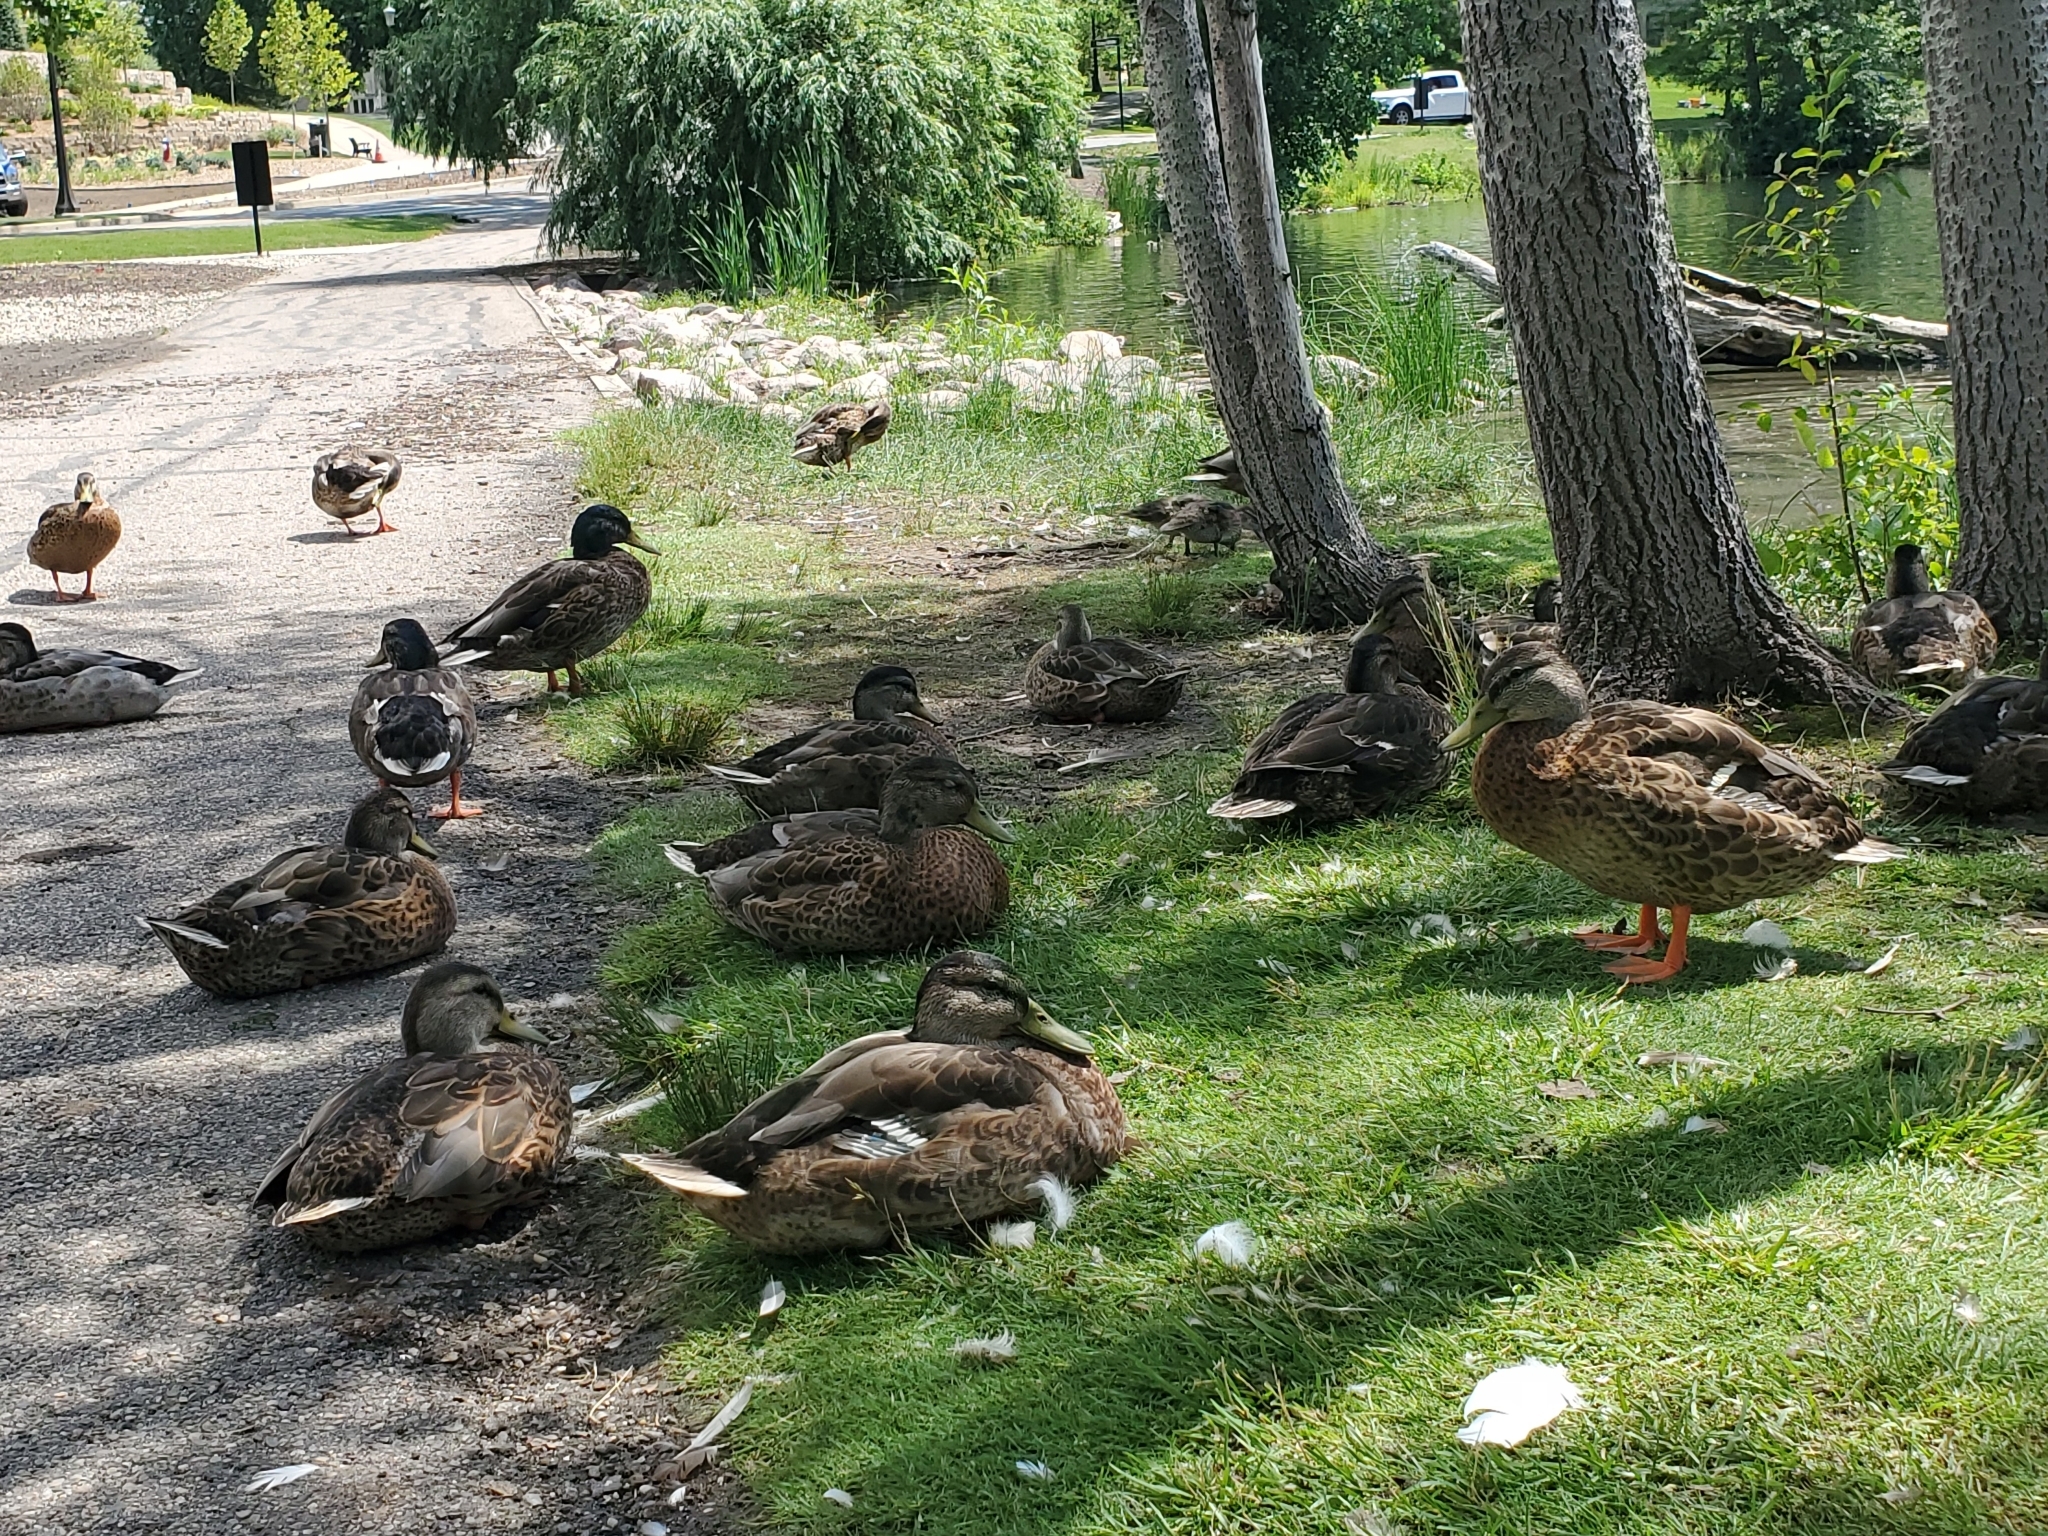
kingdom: Animalia
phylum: Chordata
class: Aves
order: Anseriformes
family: Anatidae
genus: Anas
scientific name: Anas platyrhynchos
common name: Mallard
